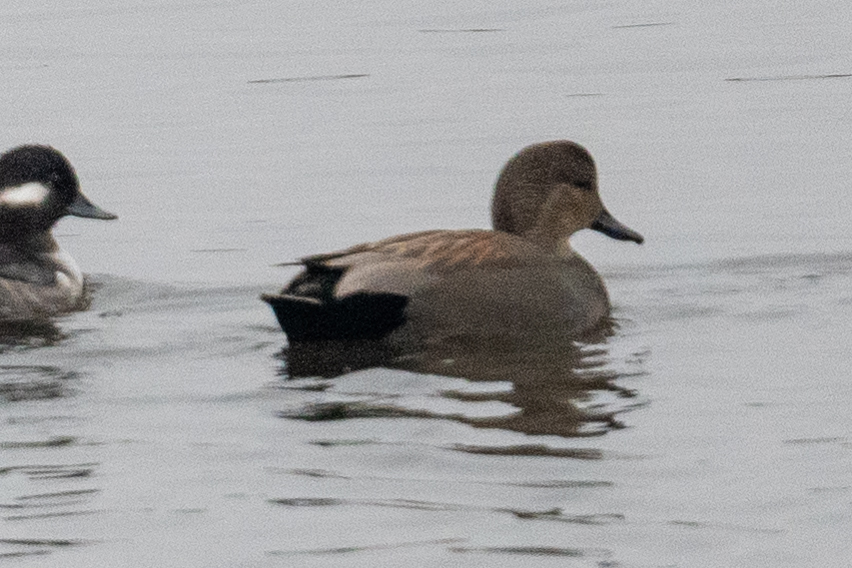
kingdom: Animalia
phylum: Chordata
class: Aves
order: Anseriformes
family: Anatidae
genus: Mareca
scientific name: Mareca strepera
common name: Gadwall
